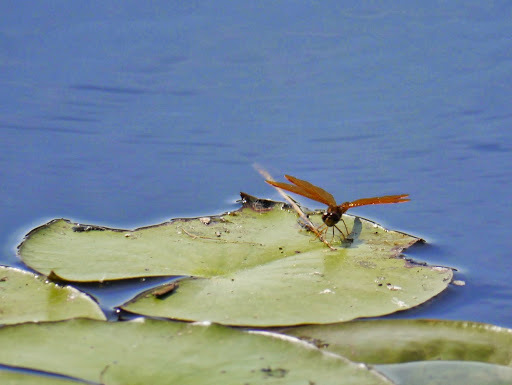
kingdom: Animalia
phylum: Arthropoda
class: Insecta
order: Odonata
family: Libellulidae
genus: Perithemis
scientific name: Perithemis tenera
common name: Eastern amberwing
